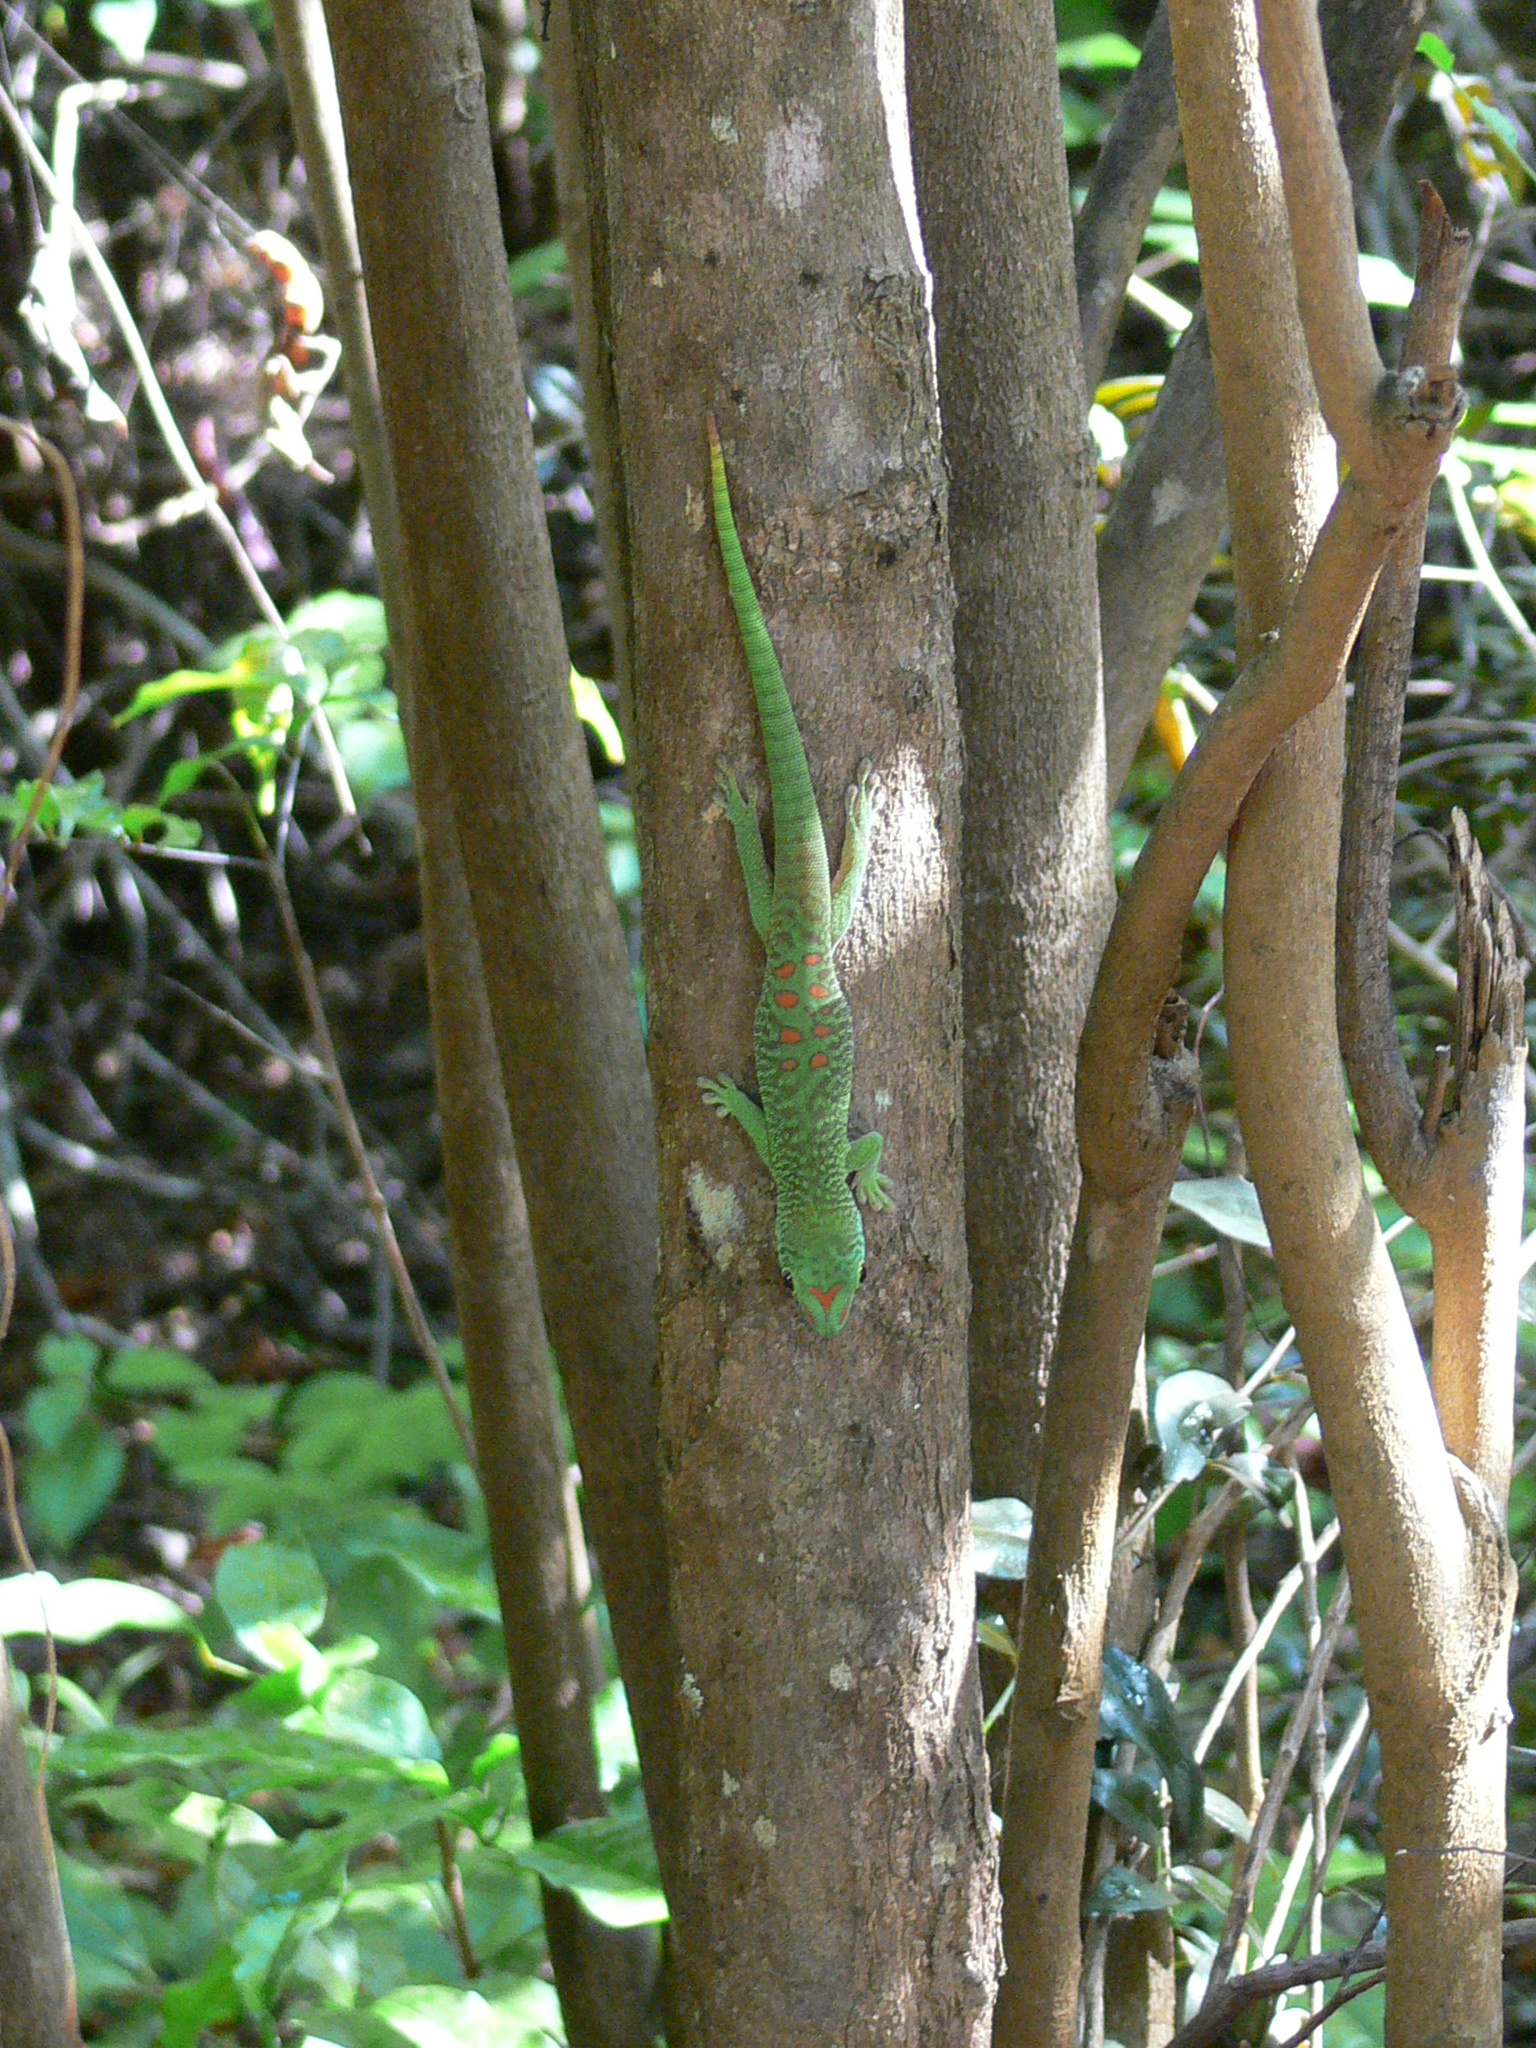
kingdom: Animalia
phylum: Chordata
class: Squamata
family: Gekkonidae
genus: Phelsuma
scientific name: Phelsuma grandis
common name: Madagascar giant day gecko
